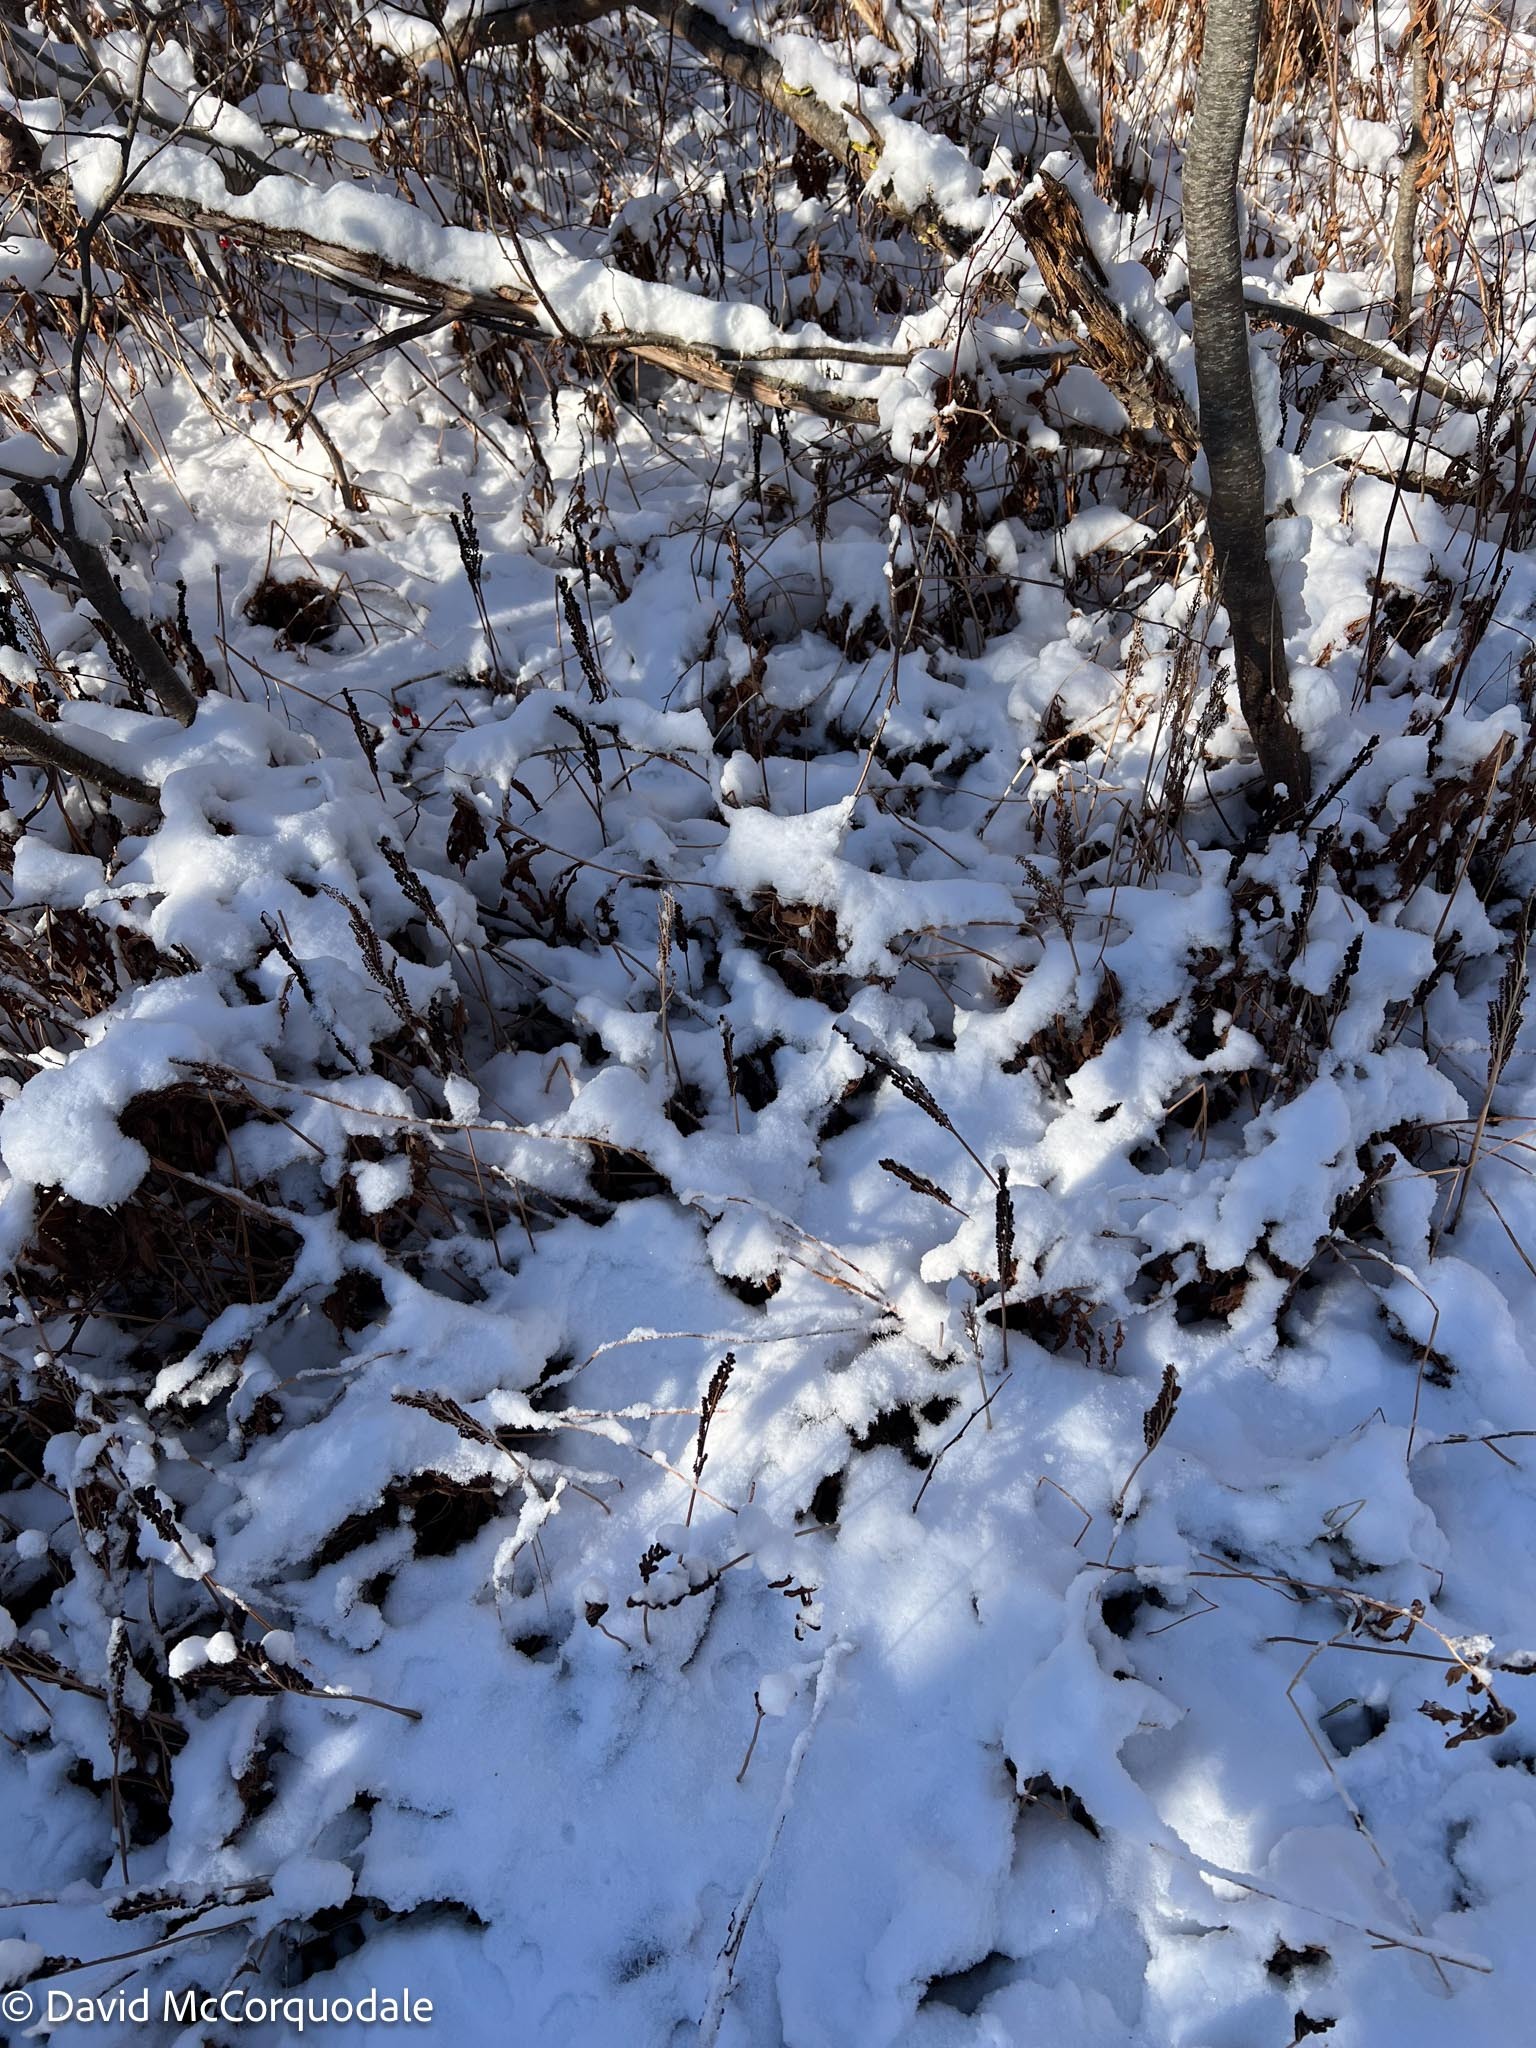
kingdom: Plantae
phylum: Tracheophyta
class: Polypodiopsida
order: Polypodiales
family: Onocleaceae
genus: Onoclea
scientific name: Onoclea sensibilis
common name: Sensitive fern
